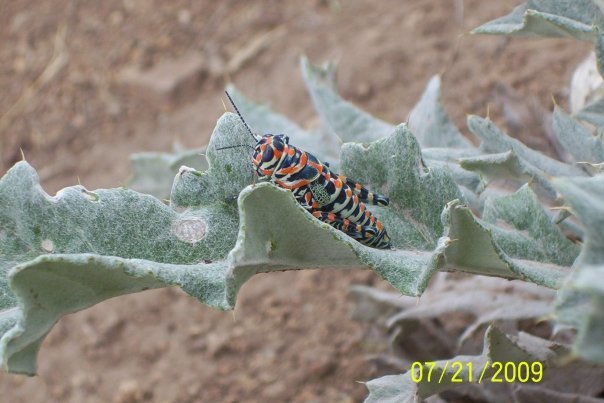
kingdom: Animalia
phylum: Arthropoda
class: Insecta
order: Orthoptera
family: Acrididae
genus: Dactylotum
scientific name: Dactylotum bicolor
